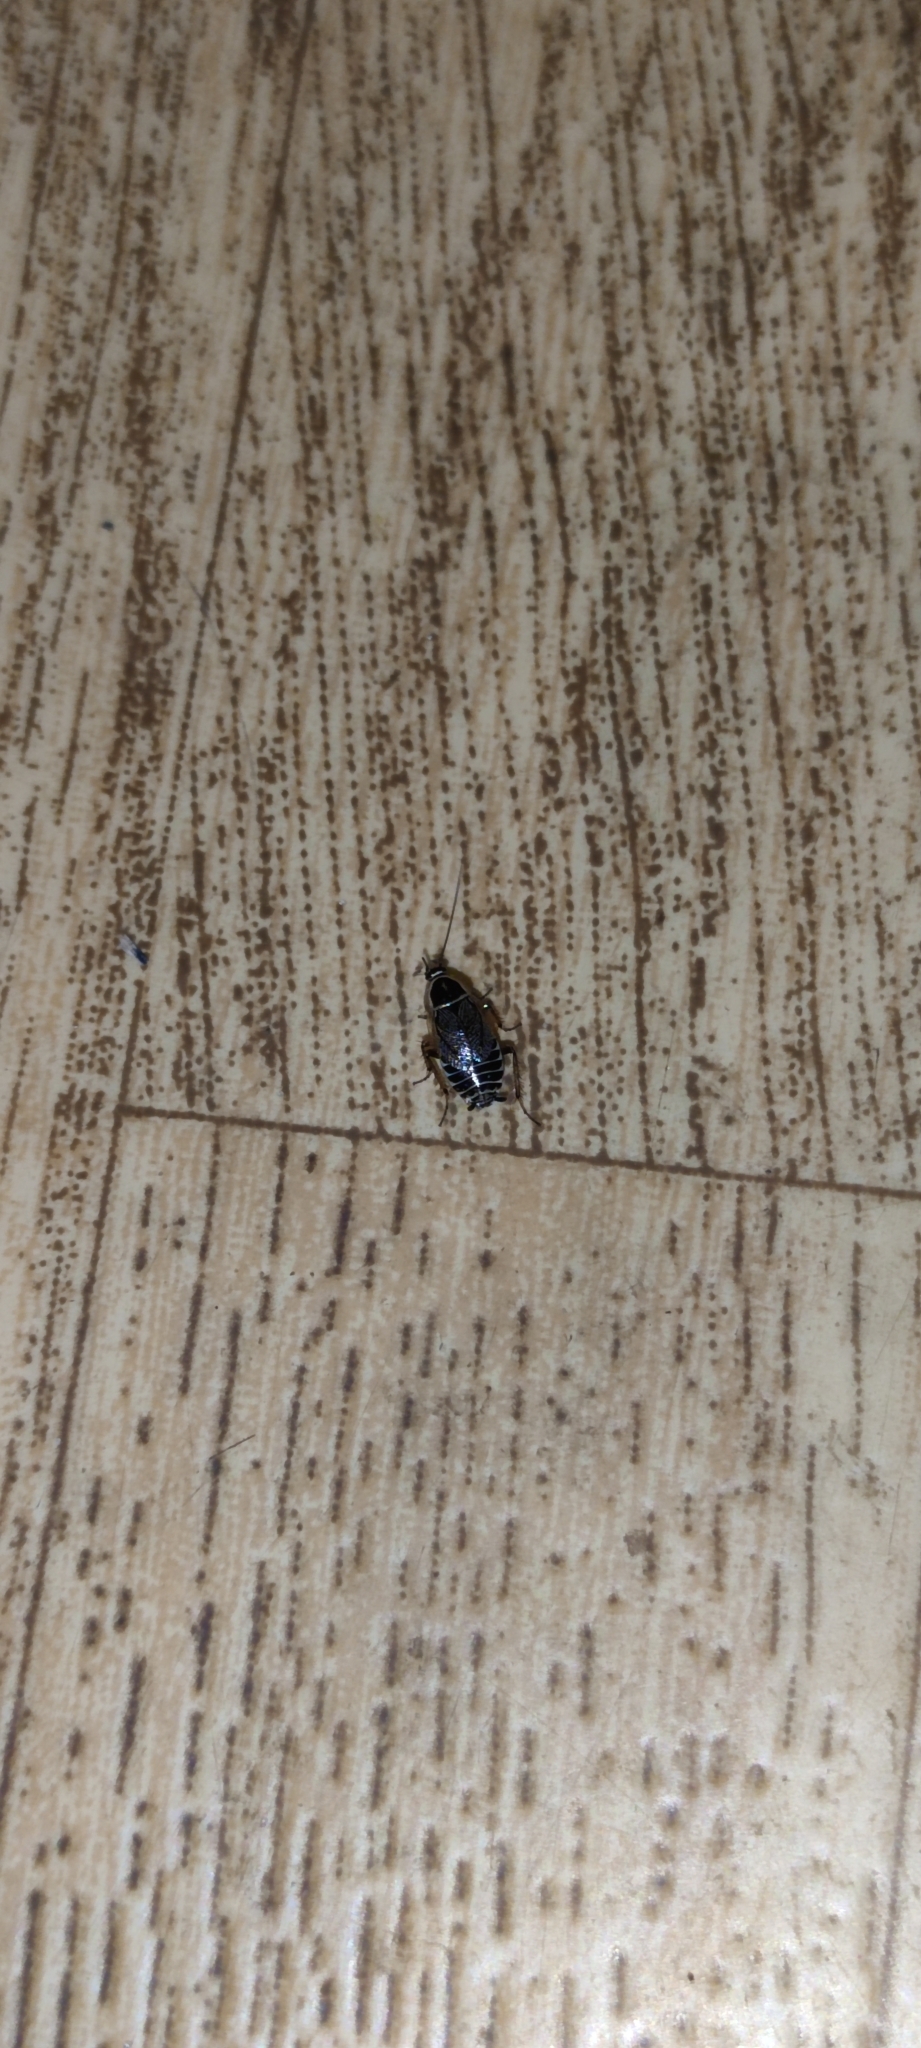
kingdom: Animalia
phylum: Arthropoda
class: Insecta
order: Blattodea
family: Ectobiidae
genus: Ectobius
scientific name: Ectobius sylvestris
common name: Forest cockroach
